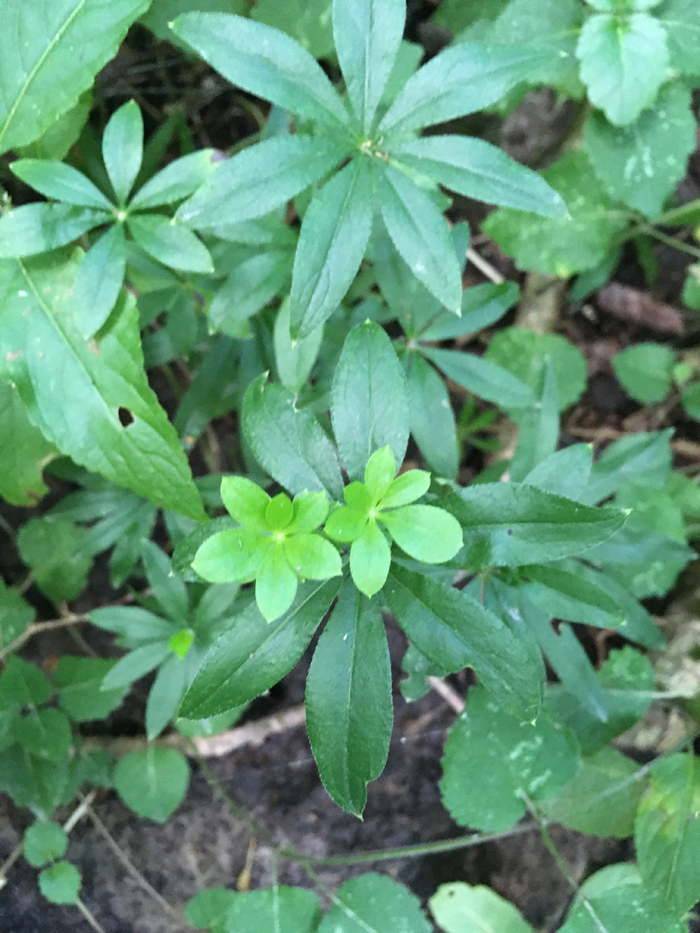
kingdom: Plantae
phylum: Tracheophyta
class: Magnoliopsida
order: Gentianales
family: Rubiaceae
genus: Galium
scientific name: Galium odoratum
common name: Sweet woodruff
